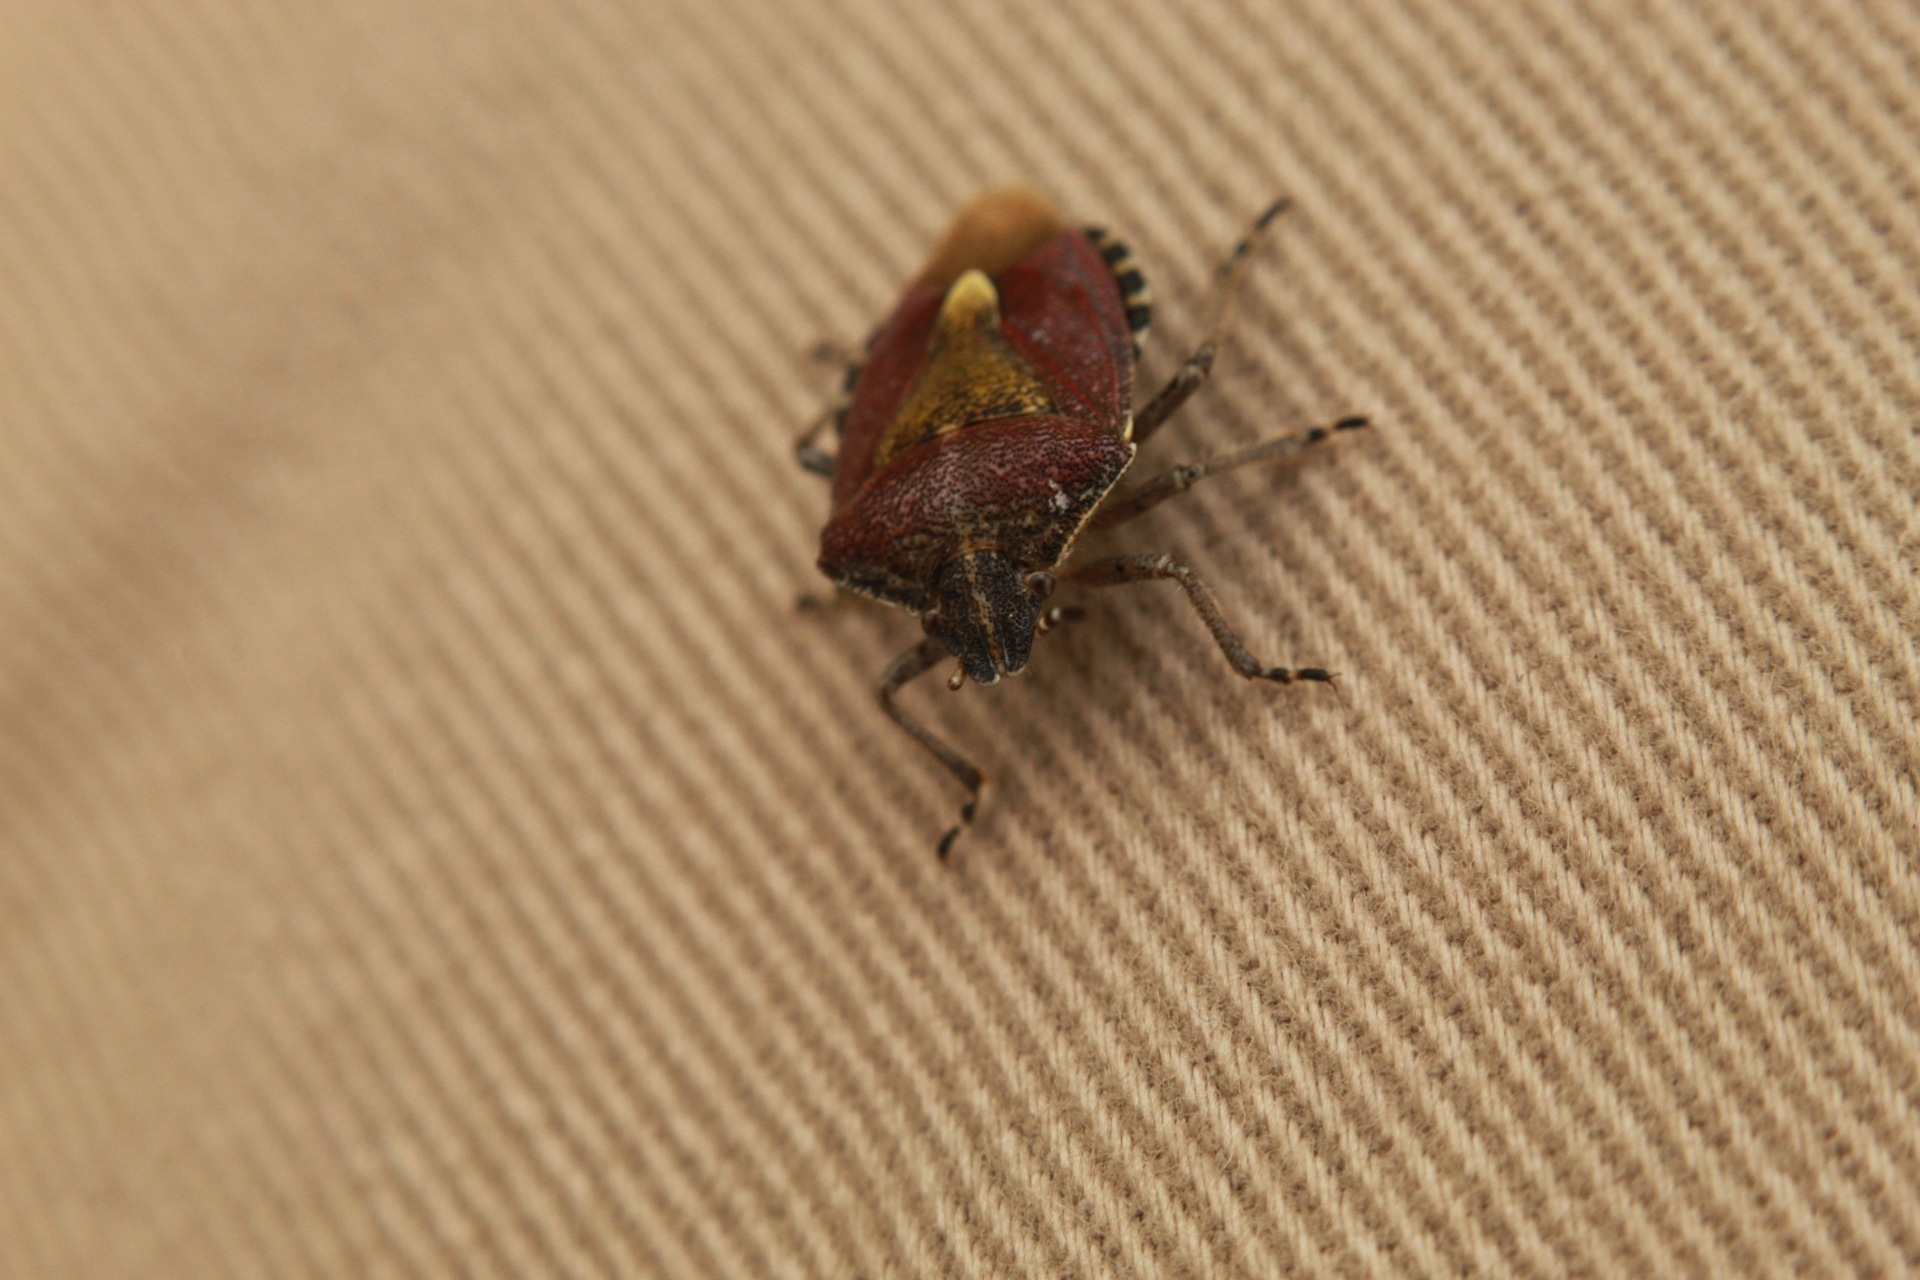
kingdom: Animalia
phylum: Arthropoda
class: Insecta
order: Hemiptera
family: Pentatomidae
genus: Dolycoris
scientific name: Dolycoris baccarum
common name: Sloe bug
